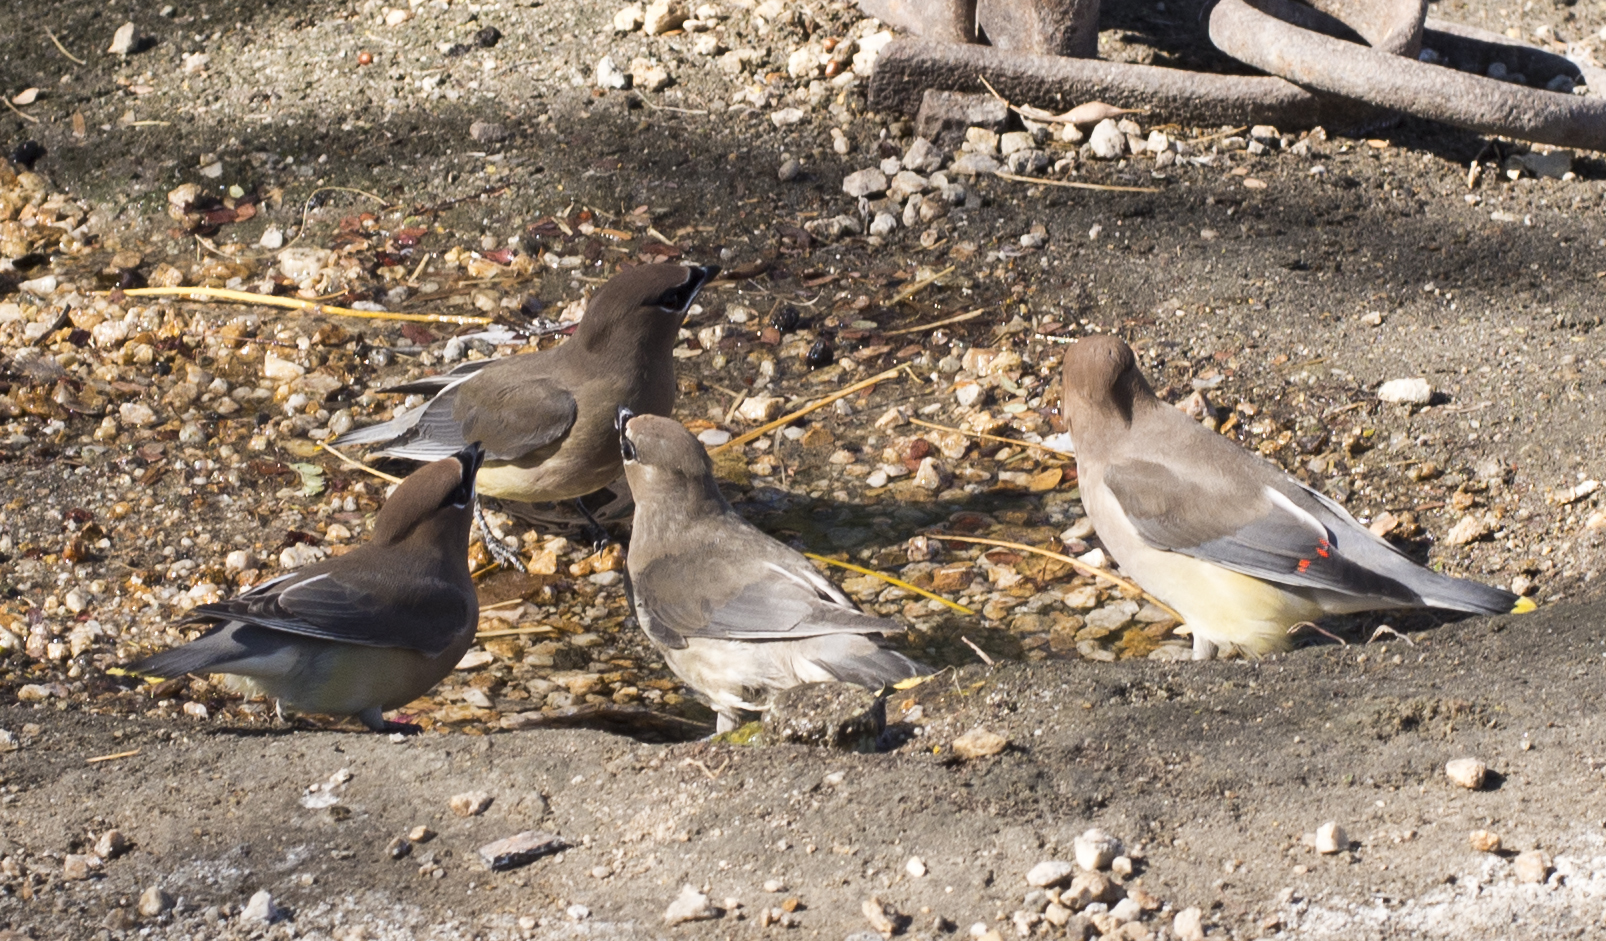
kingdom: Animalia
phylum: Chordata
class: Aves
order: Passeriformes
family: Bombycillidae
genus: Bombycilla
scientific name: Bombycilla cedrorum
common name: Cedar waxwing
